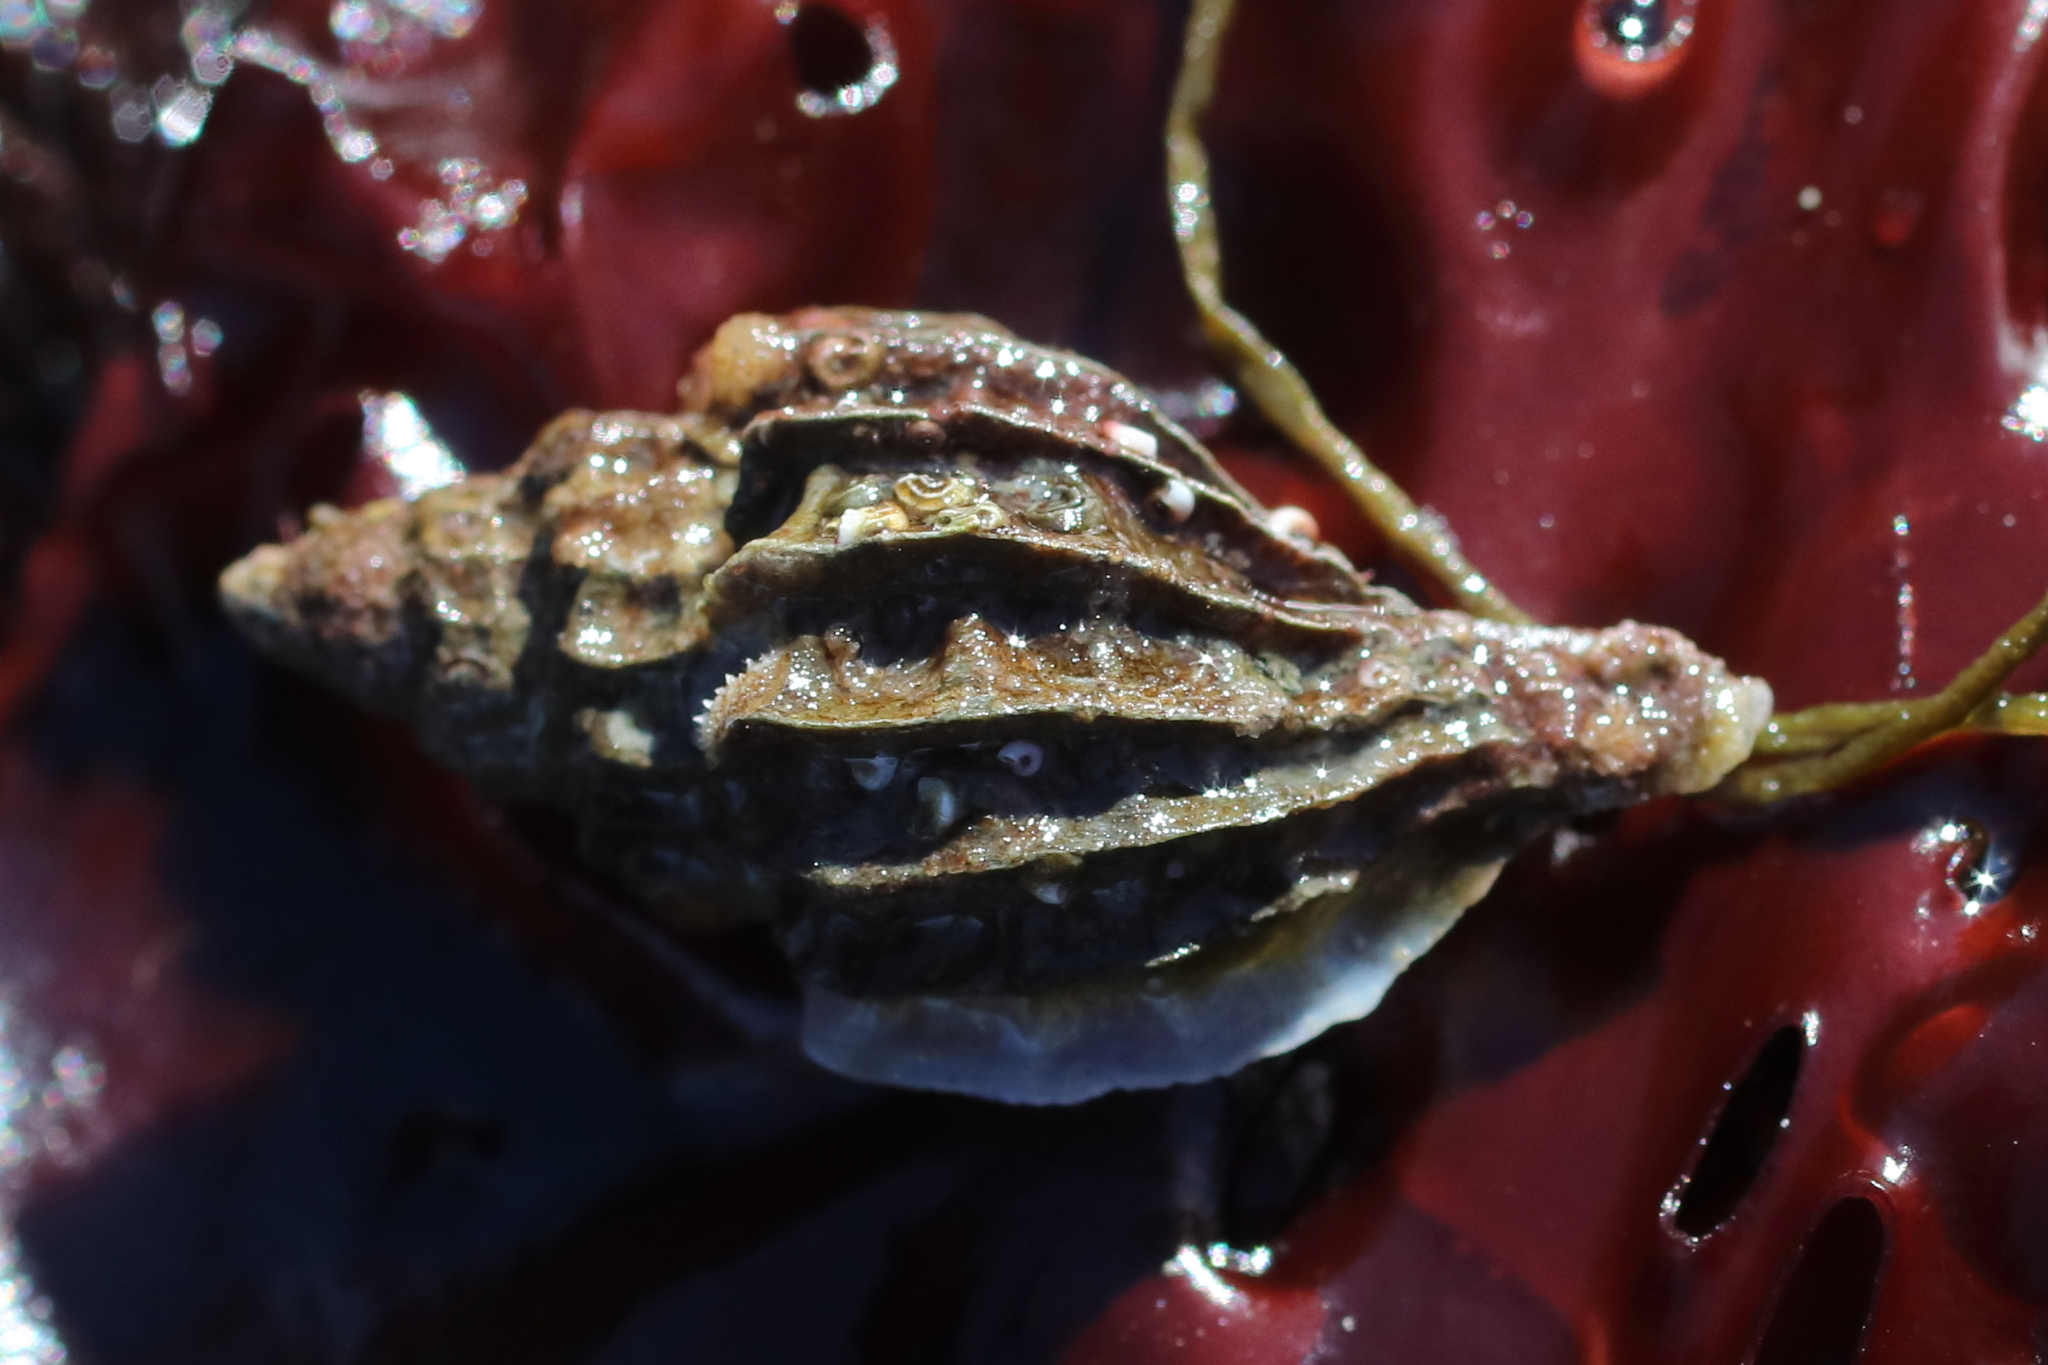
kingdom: Animalia
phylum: Mollusca
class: Gastropoda
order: Neogastropoda
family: Muricidae
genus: Scabrotrophon
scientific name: Scabrotrophon stuarti
